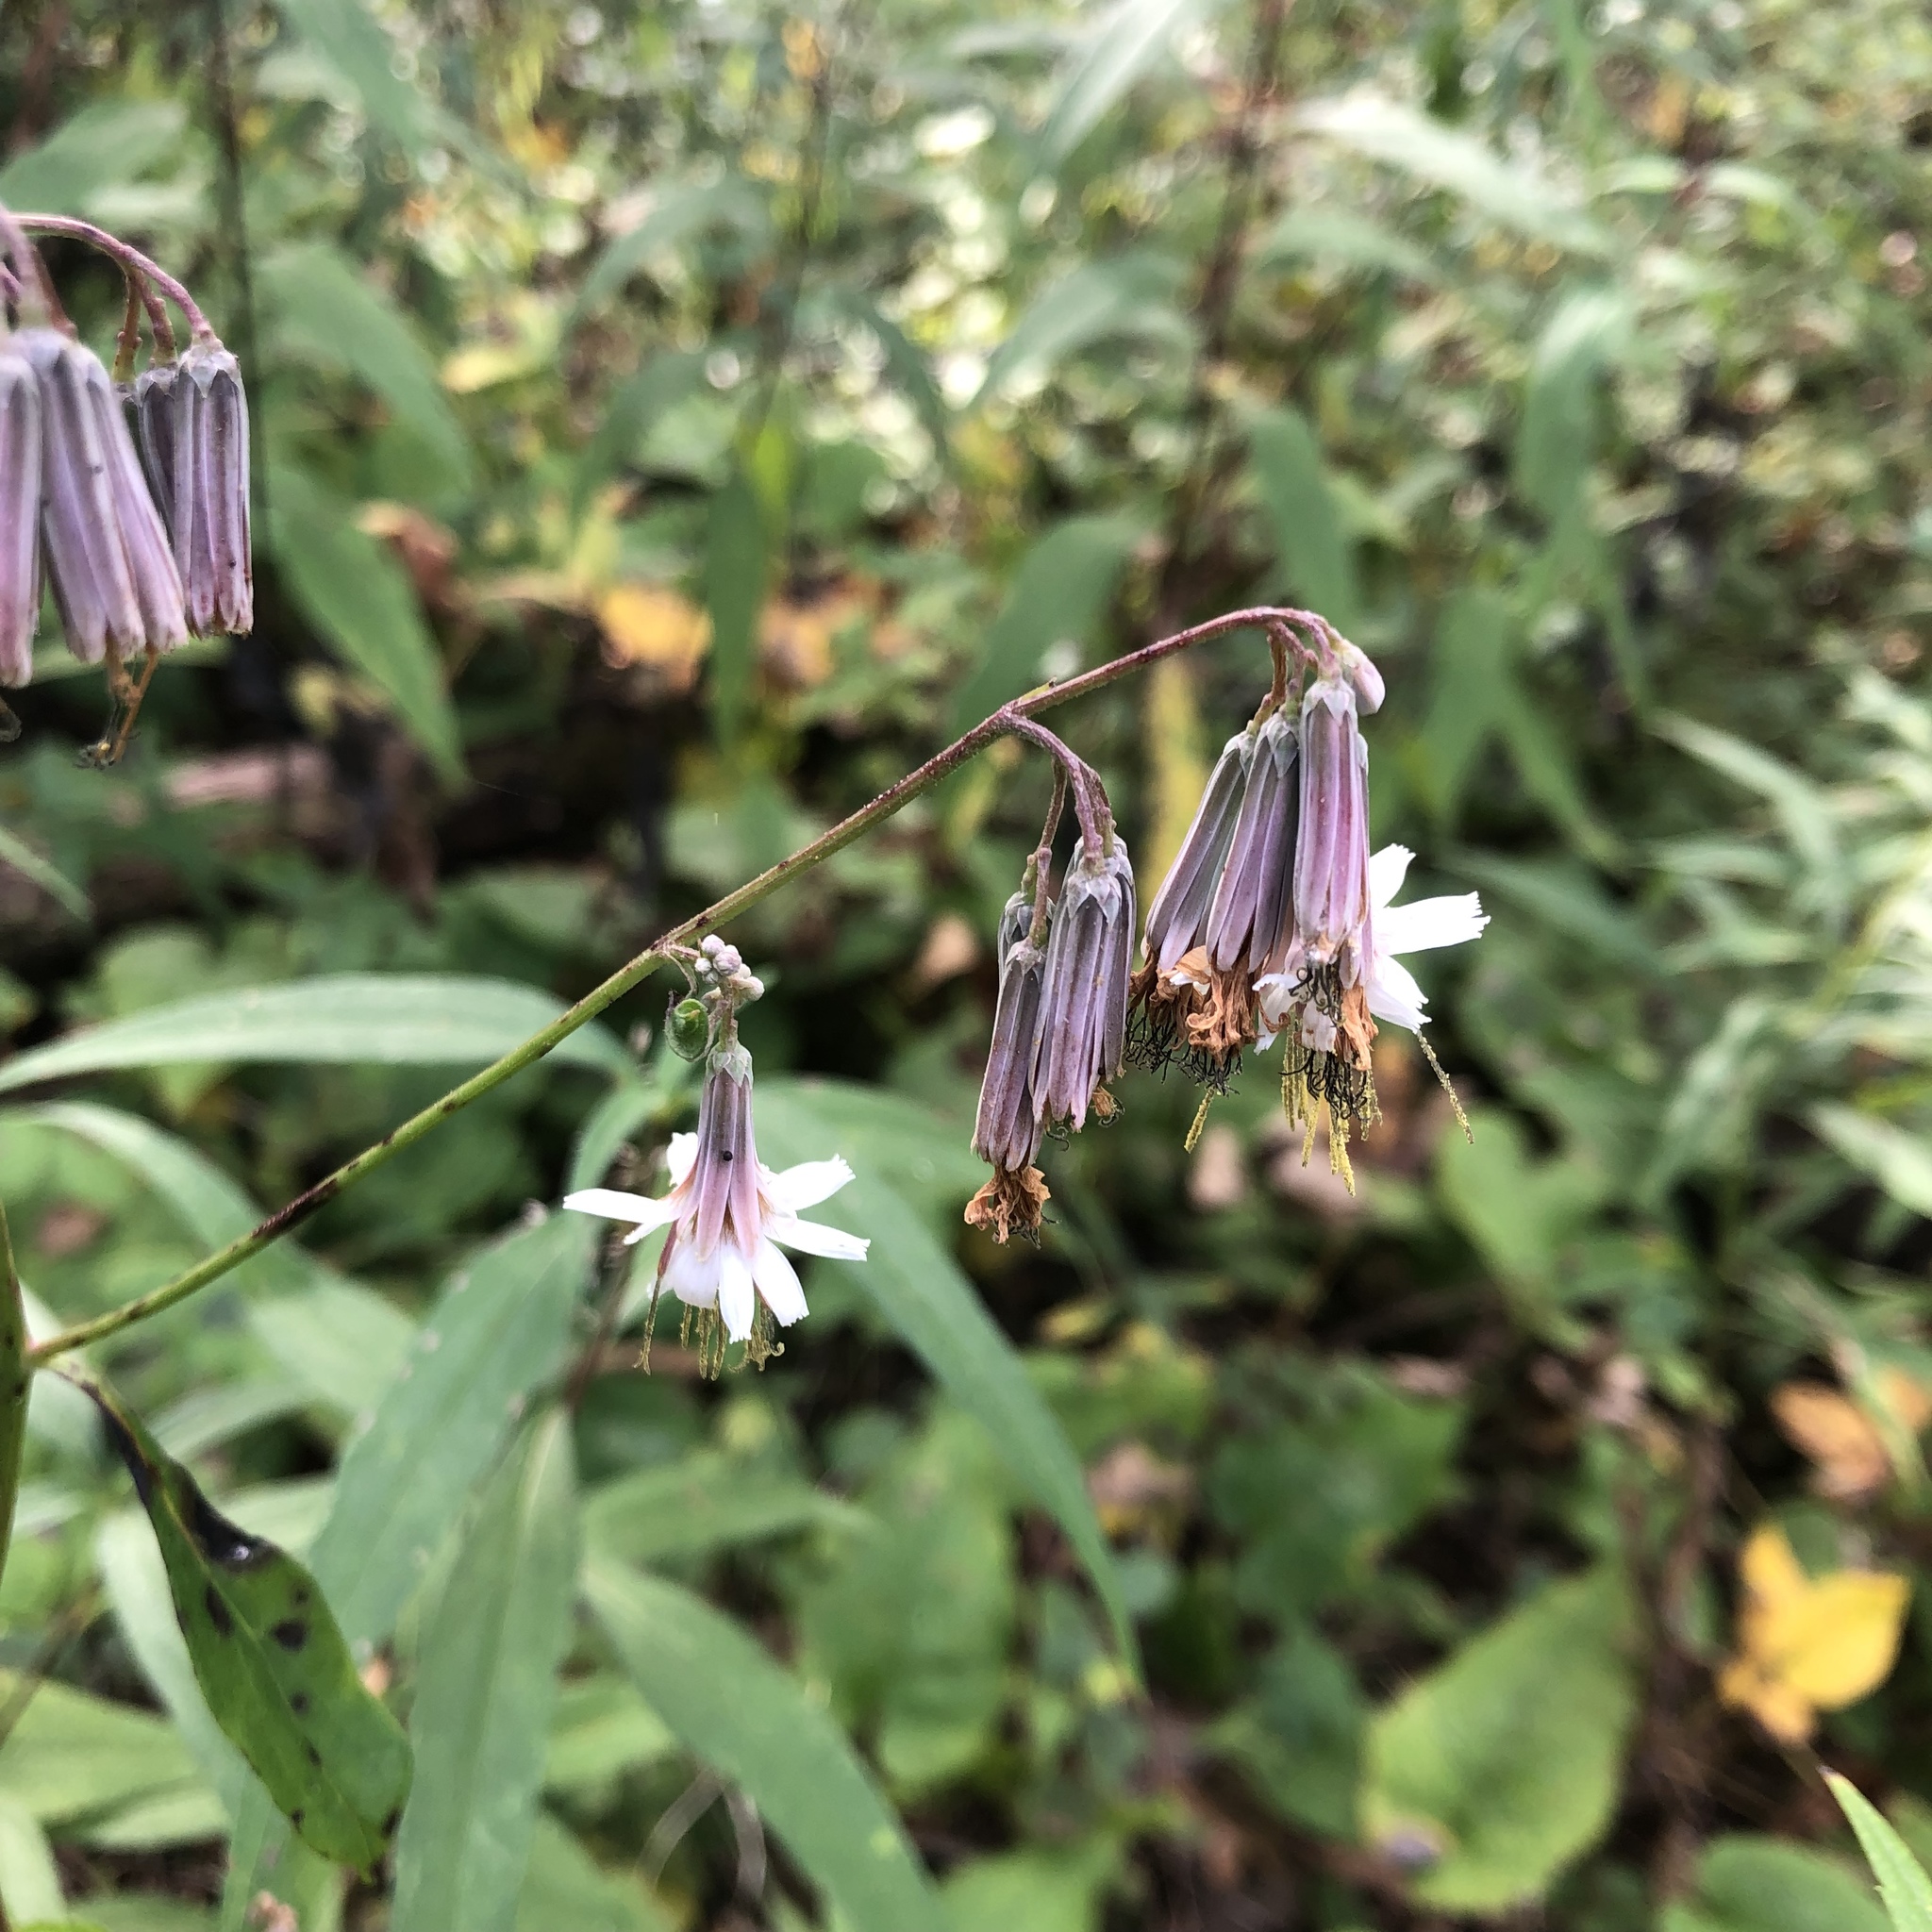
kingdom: Plantae
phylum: Tracheophyta
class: Magnoliopsida
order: Asterales
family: Asteraceae
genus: Nabalus
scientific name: Nabalus albus
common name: White rattlesnakeroot
